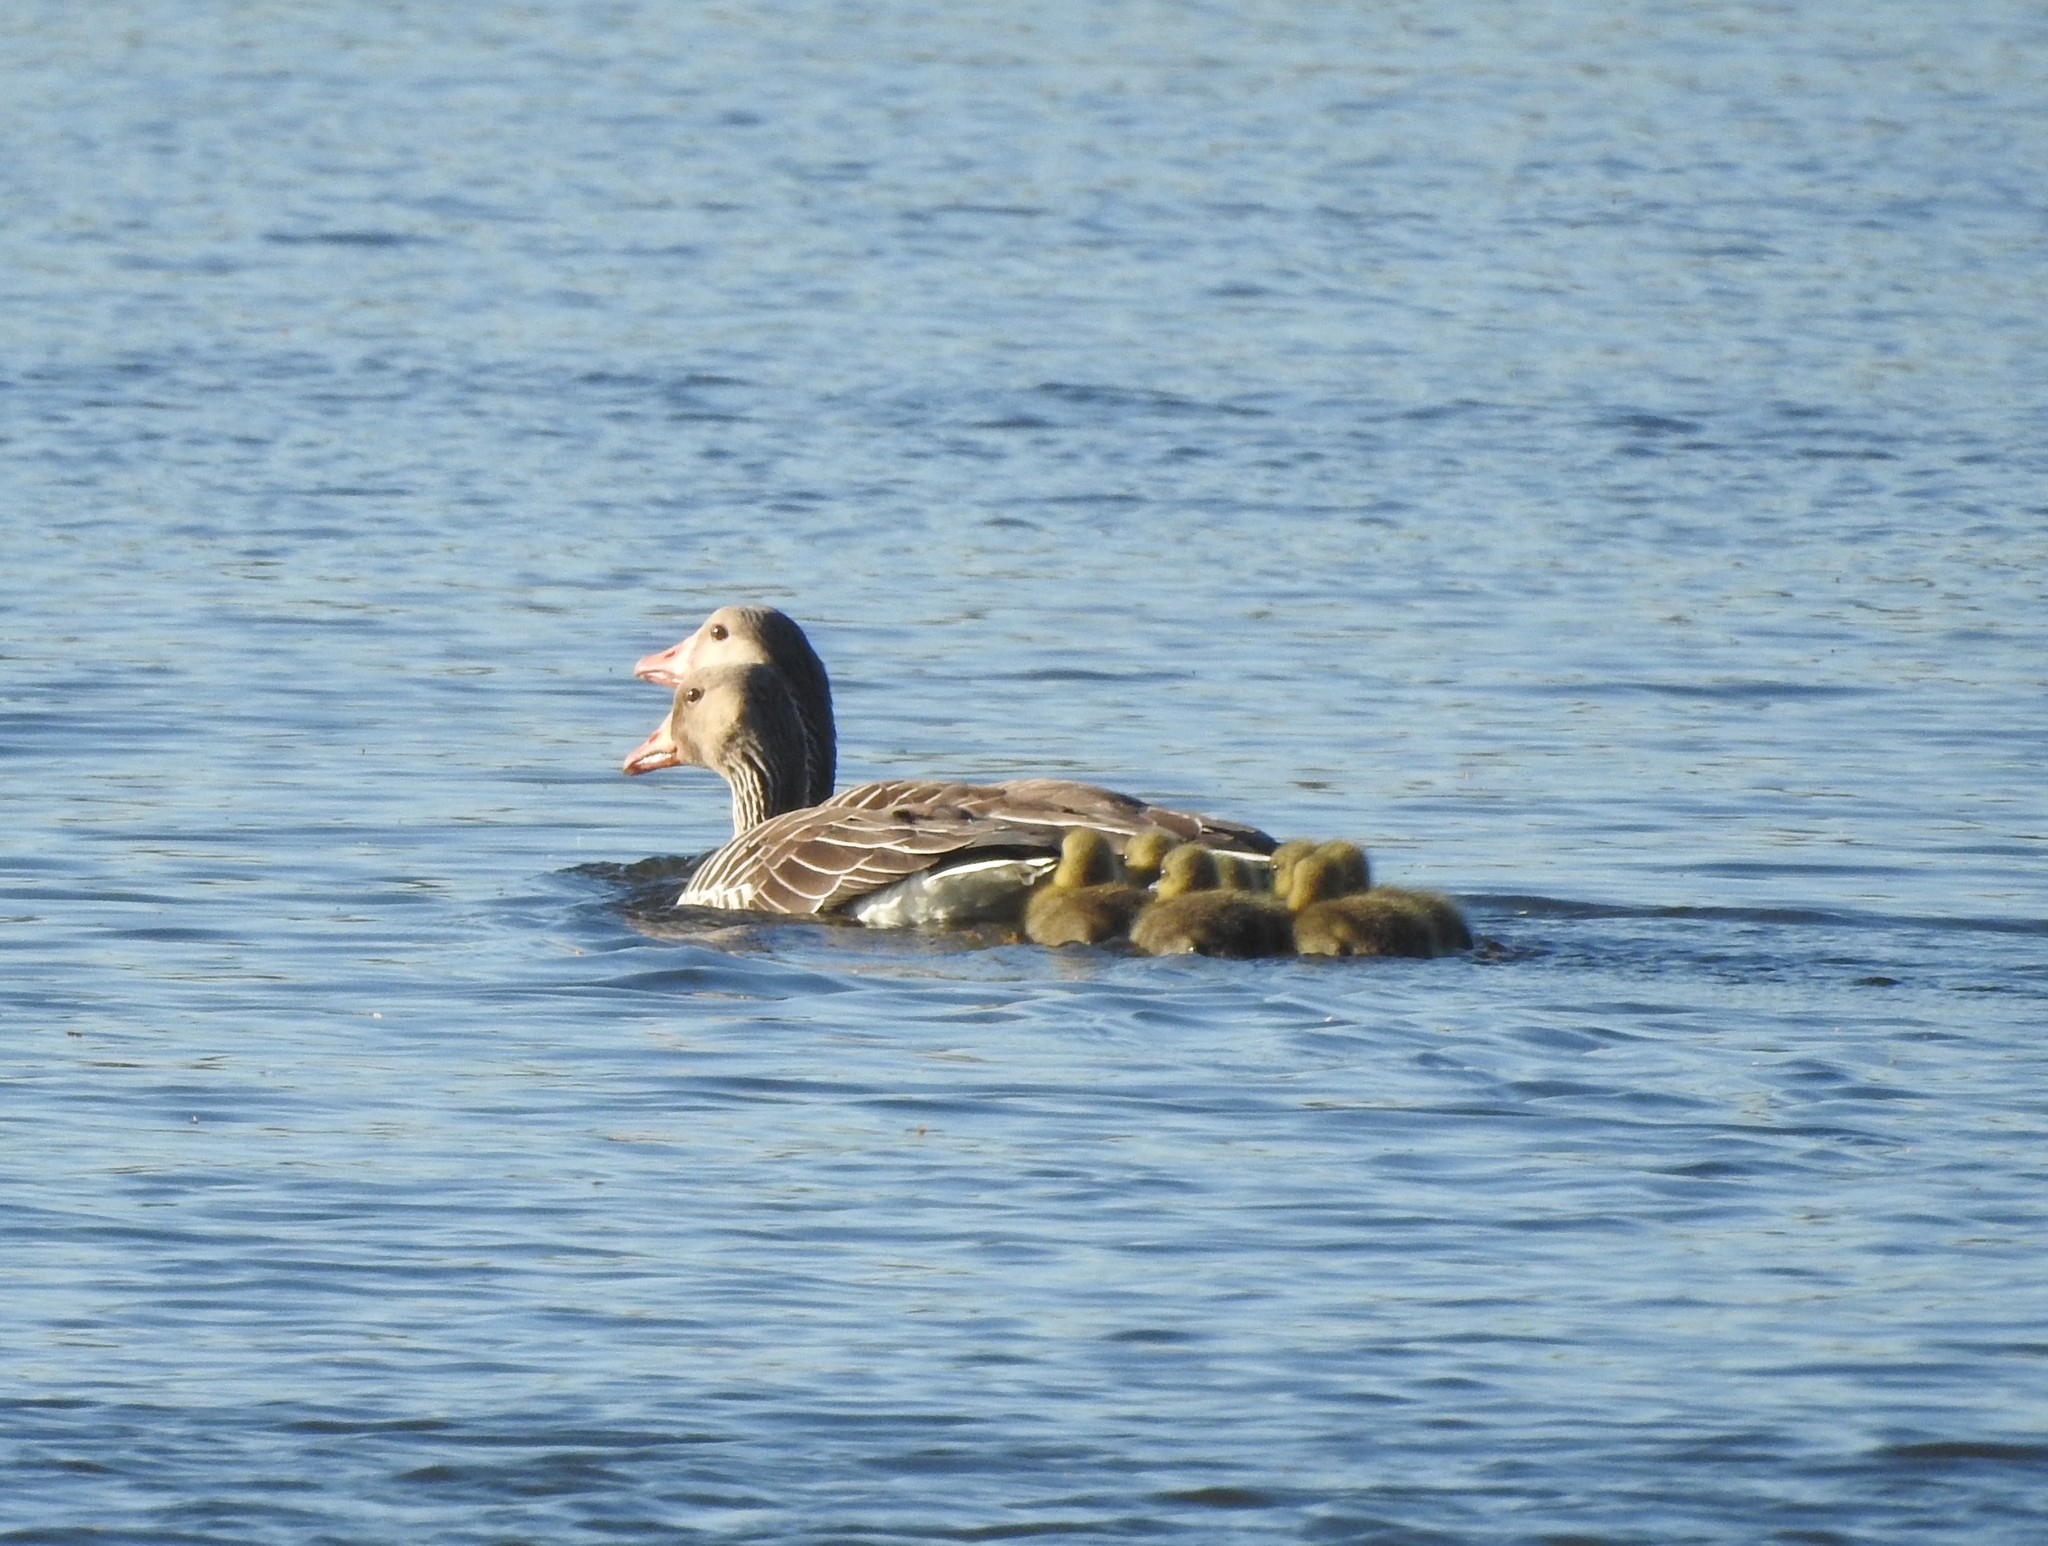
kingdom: Animalia
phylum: Chordata
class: Aves
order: Anseriformes
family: Anatidae
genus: Anser
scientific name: Anser anser
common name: Greylag goose
